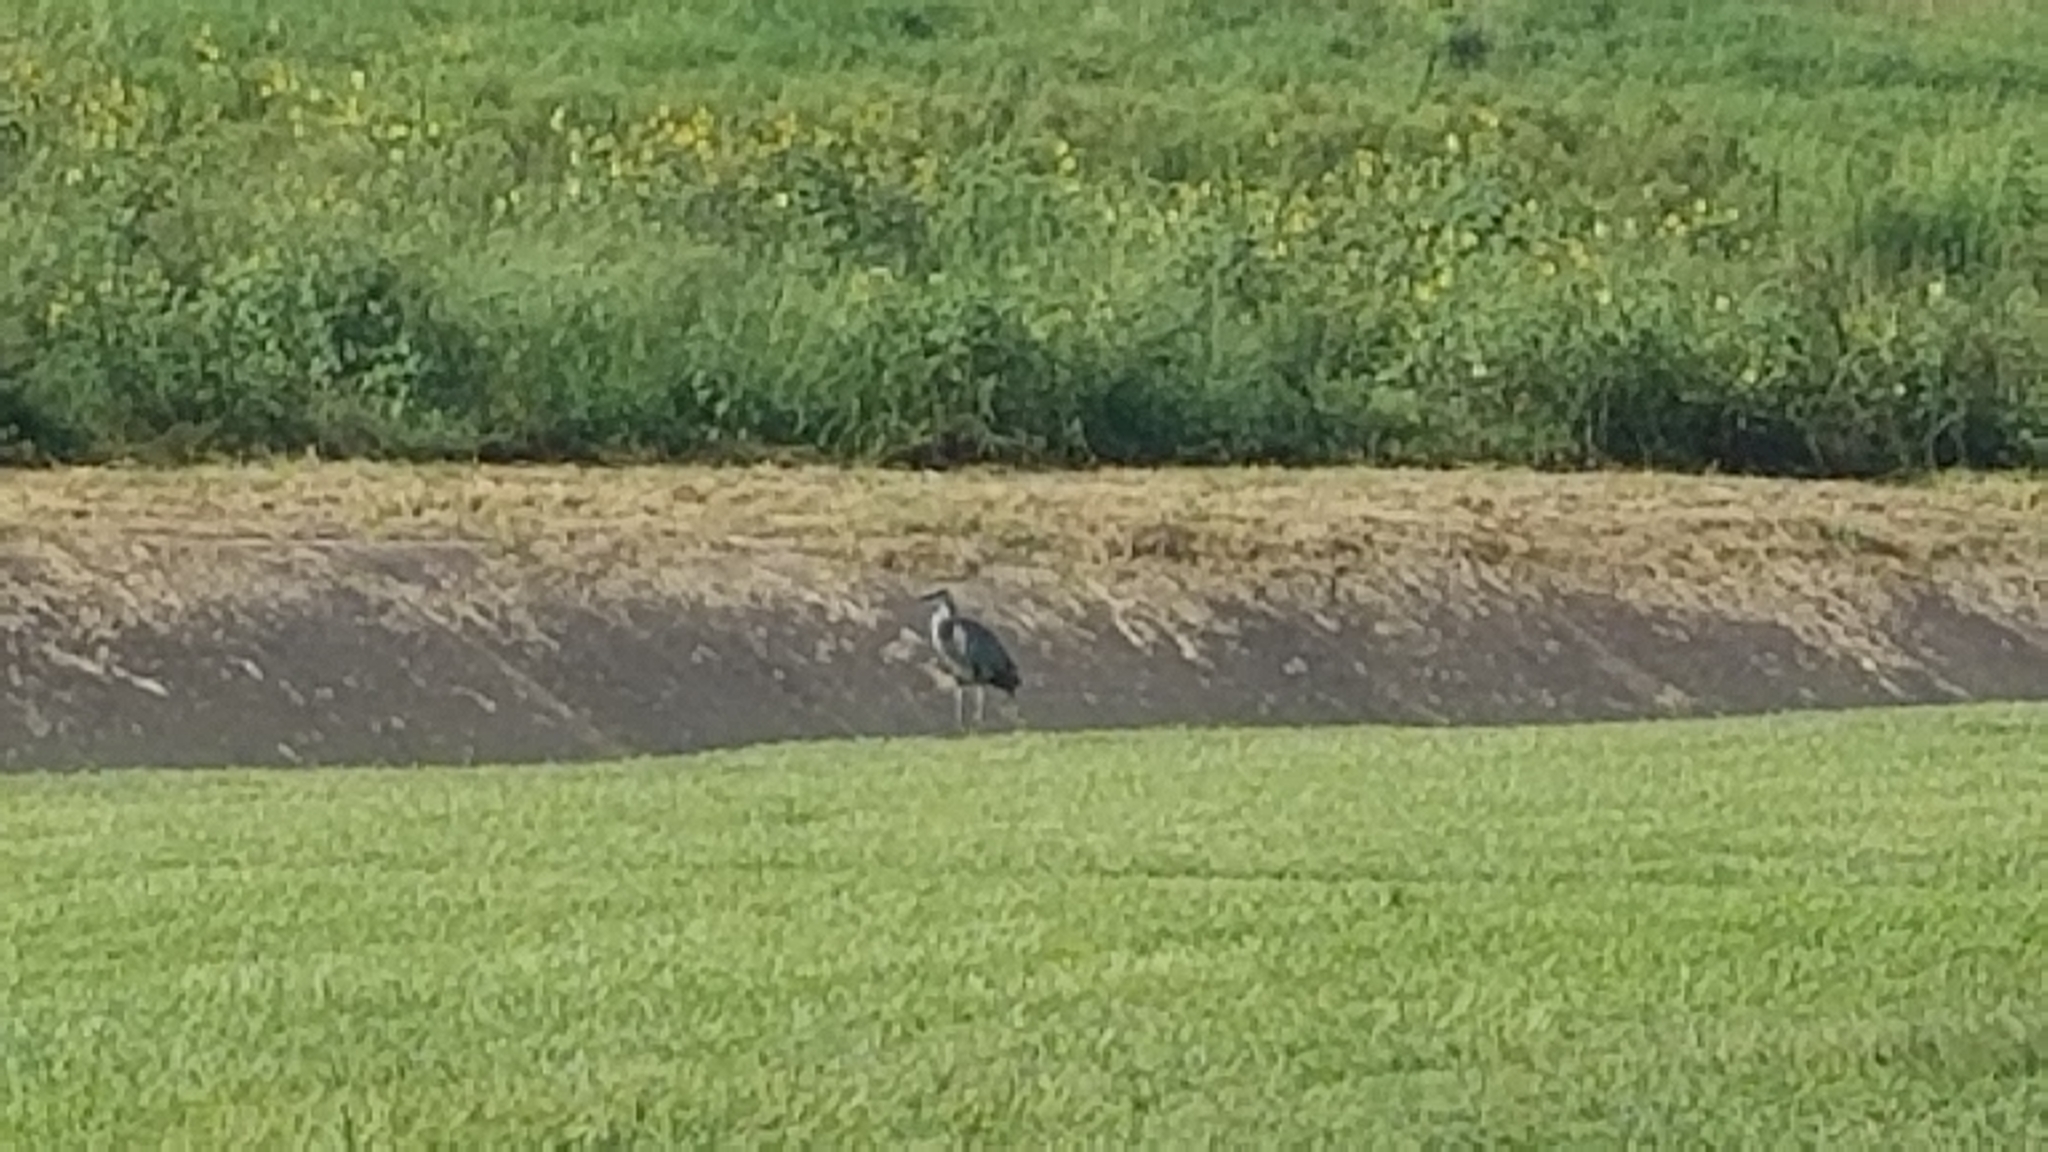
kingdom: Animalia
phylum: Chordata
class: Aves
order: Pelecaniformes
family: Ardeidae
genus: Ardea
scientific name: Ardea herodias
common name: Great blue heron
